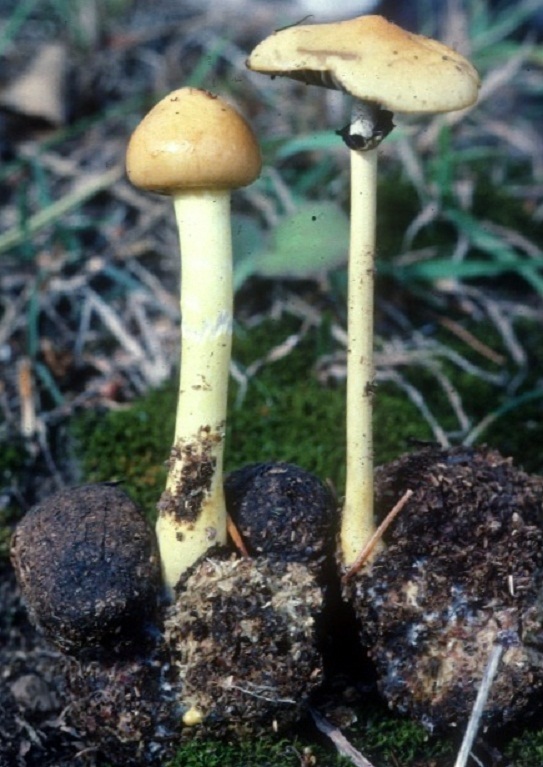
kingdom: Fungi
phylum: Basidiomycota
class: Agaricomycetes
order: Agaricales
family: Strophariaceae
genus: Protostropharia
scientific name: Protostropharia alcis
